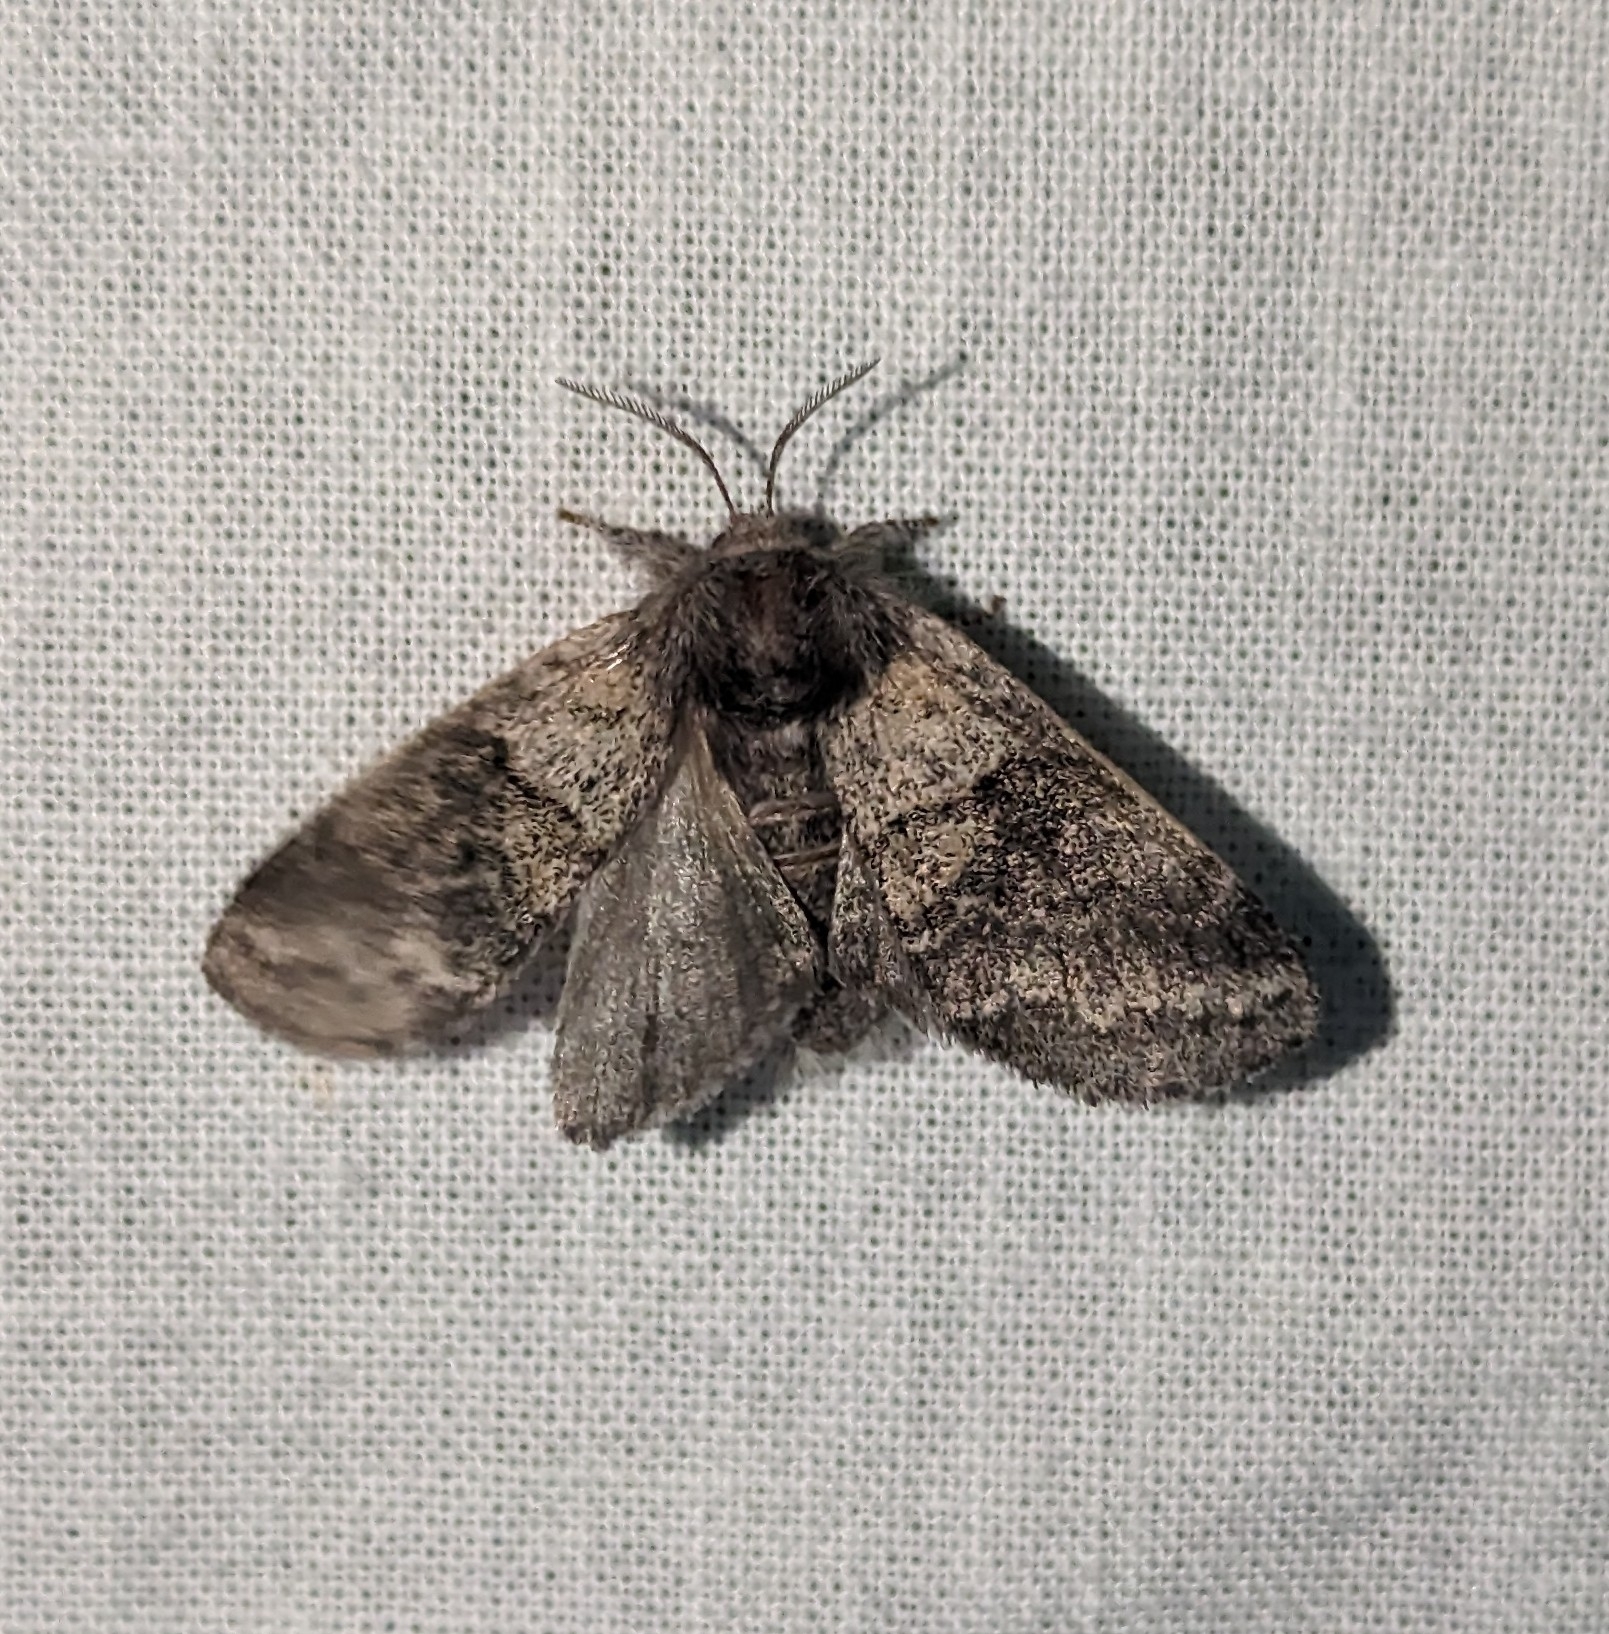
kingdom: Animalia
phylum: Arthropoda
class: Insecta
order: Lepidoptera
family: Notodontidae
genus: Gluphisia
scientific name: Gluphisia septentrionis
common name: Common gluphisia
